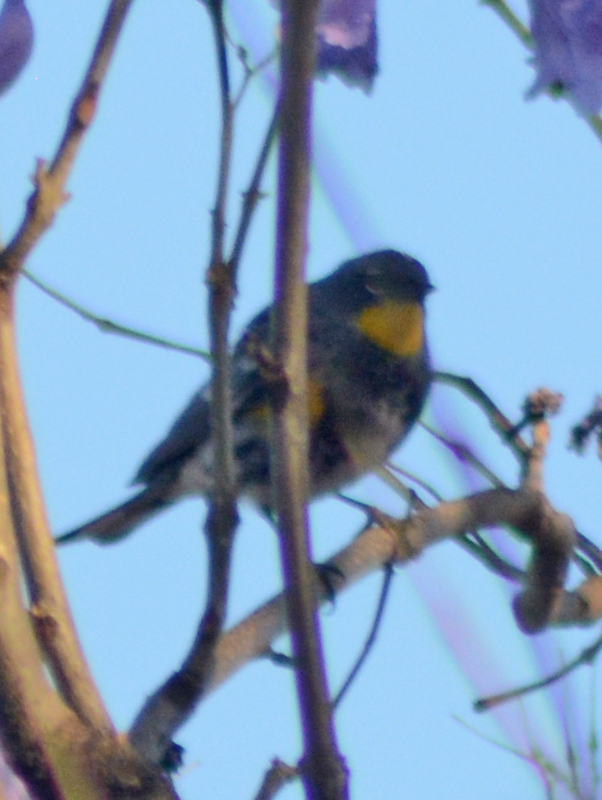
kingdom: Animalia
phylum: Chordata
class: Aves
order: Passeriformes
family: Parulidae
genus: Setophaga
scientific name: Setophaga auduboni
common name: Audubon's warbler
